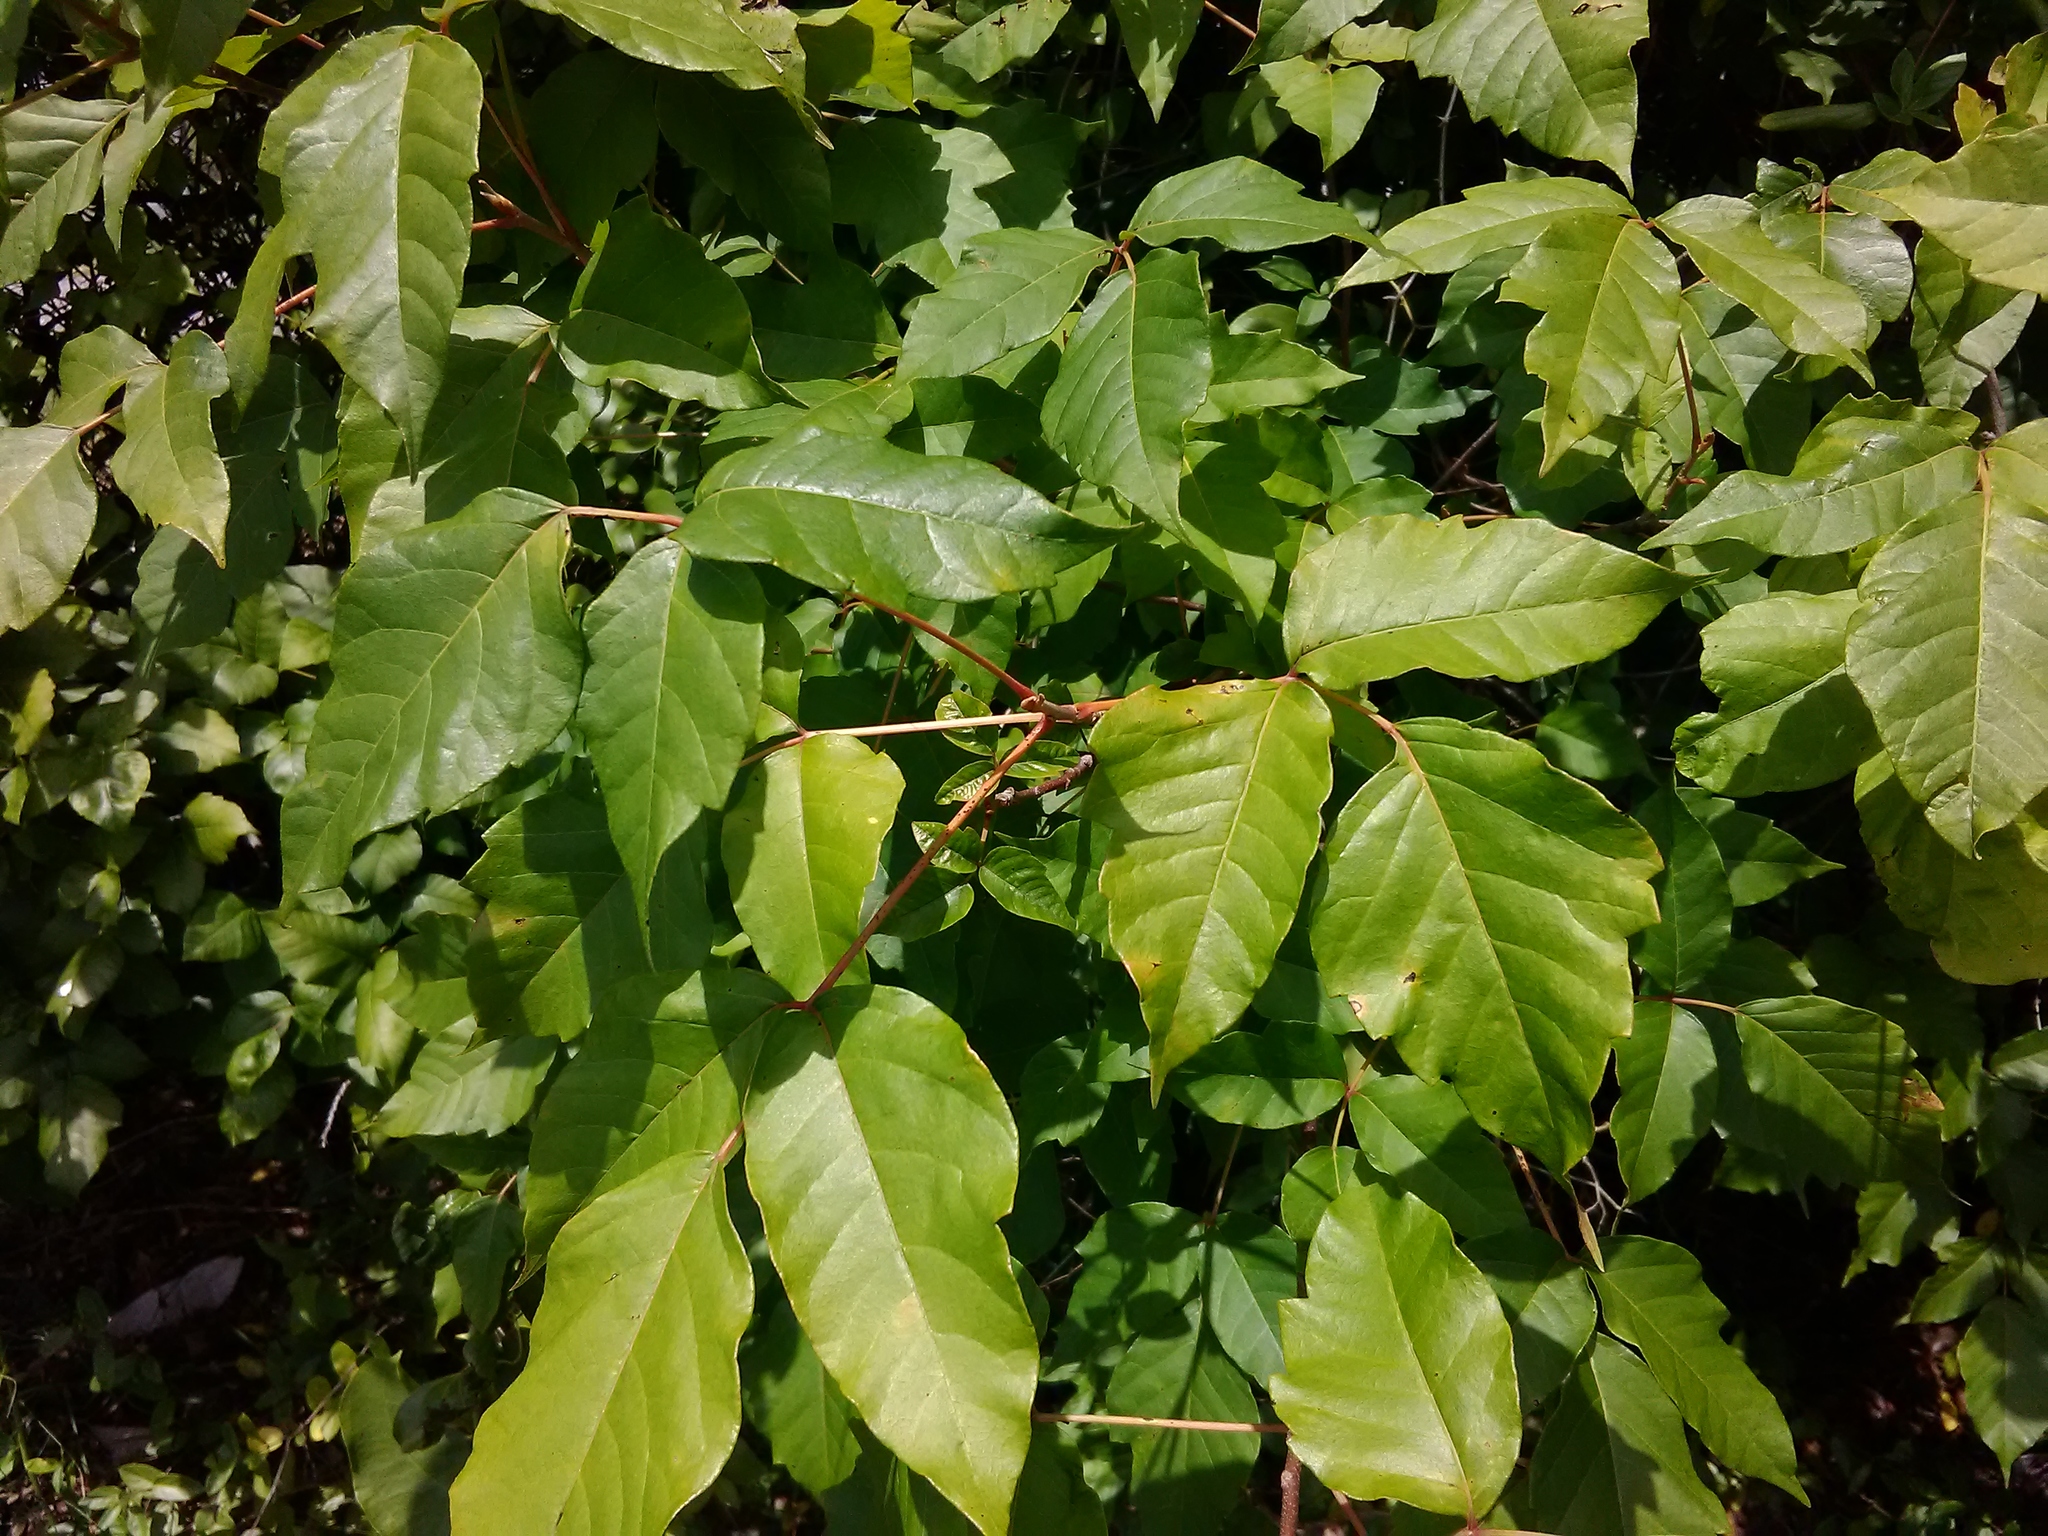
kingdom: Plantae
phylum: Tracheophyta
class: Magnoliopsida
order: Sapindales
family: Anacardiaceae
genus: Toxicodendron
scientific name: Toxicodendron radicans
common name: Poison ivy
